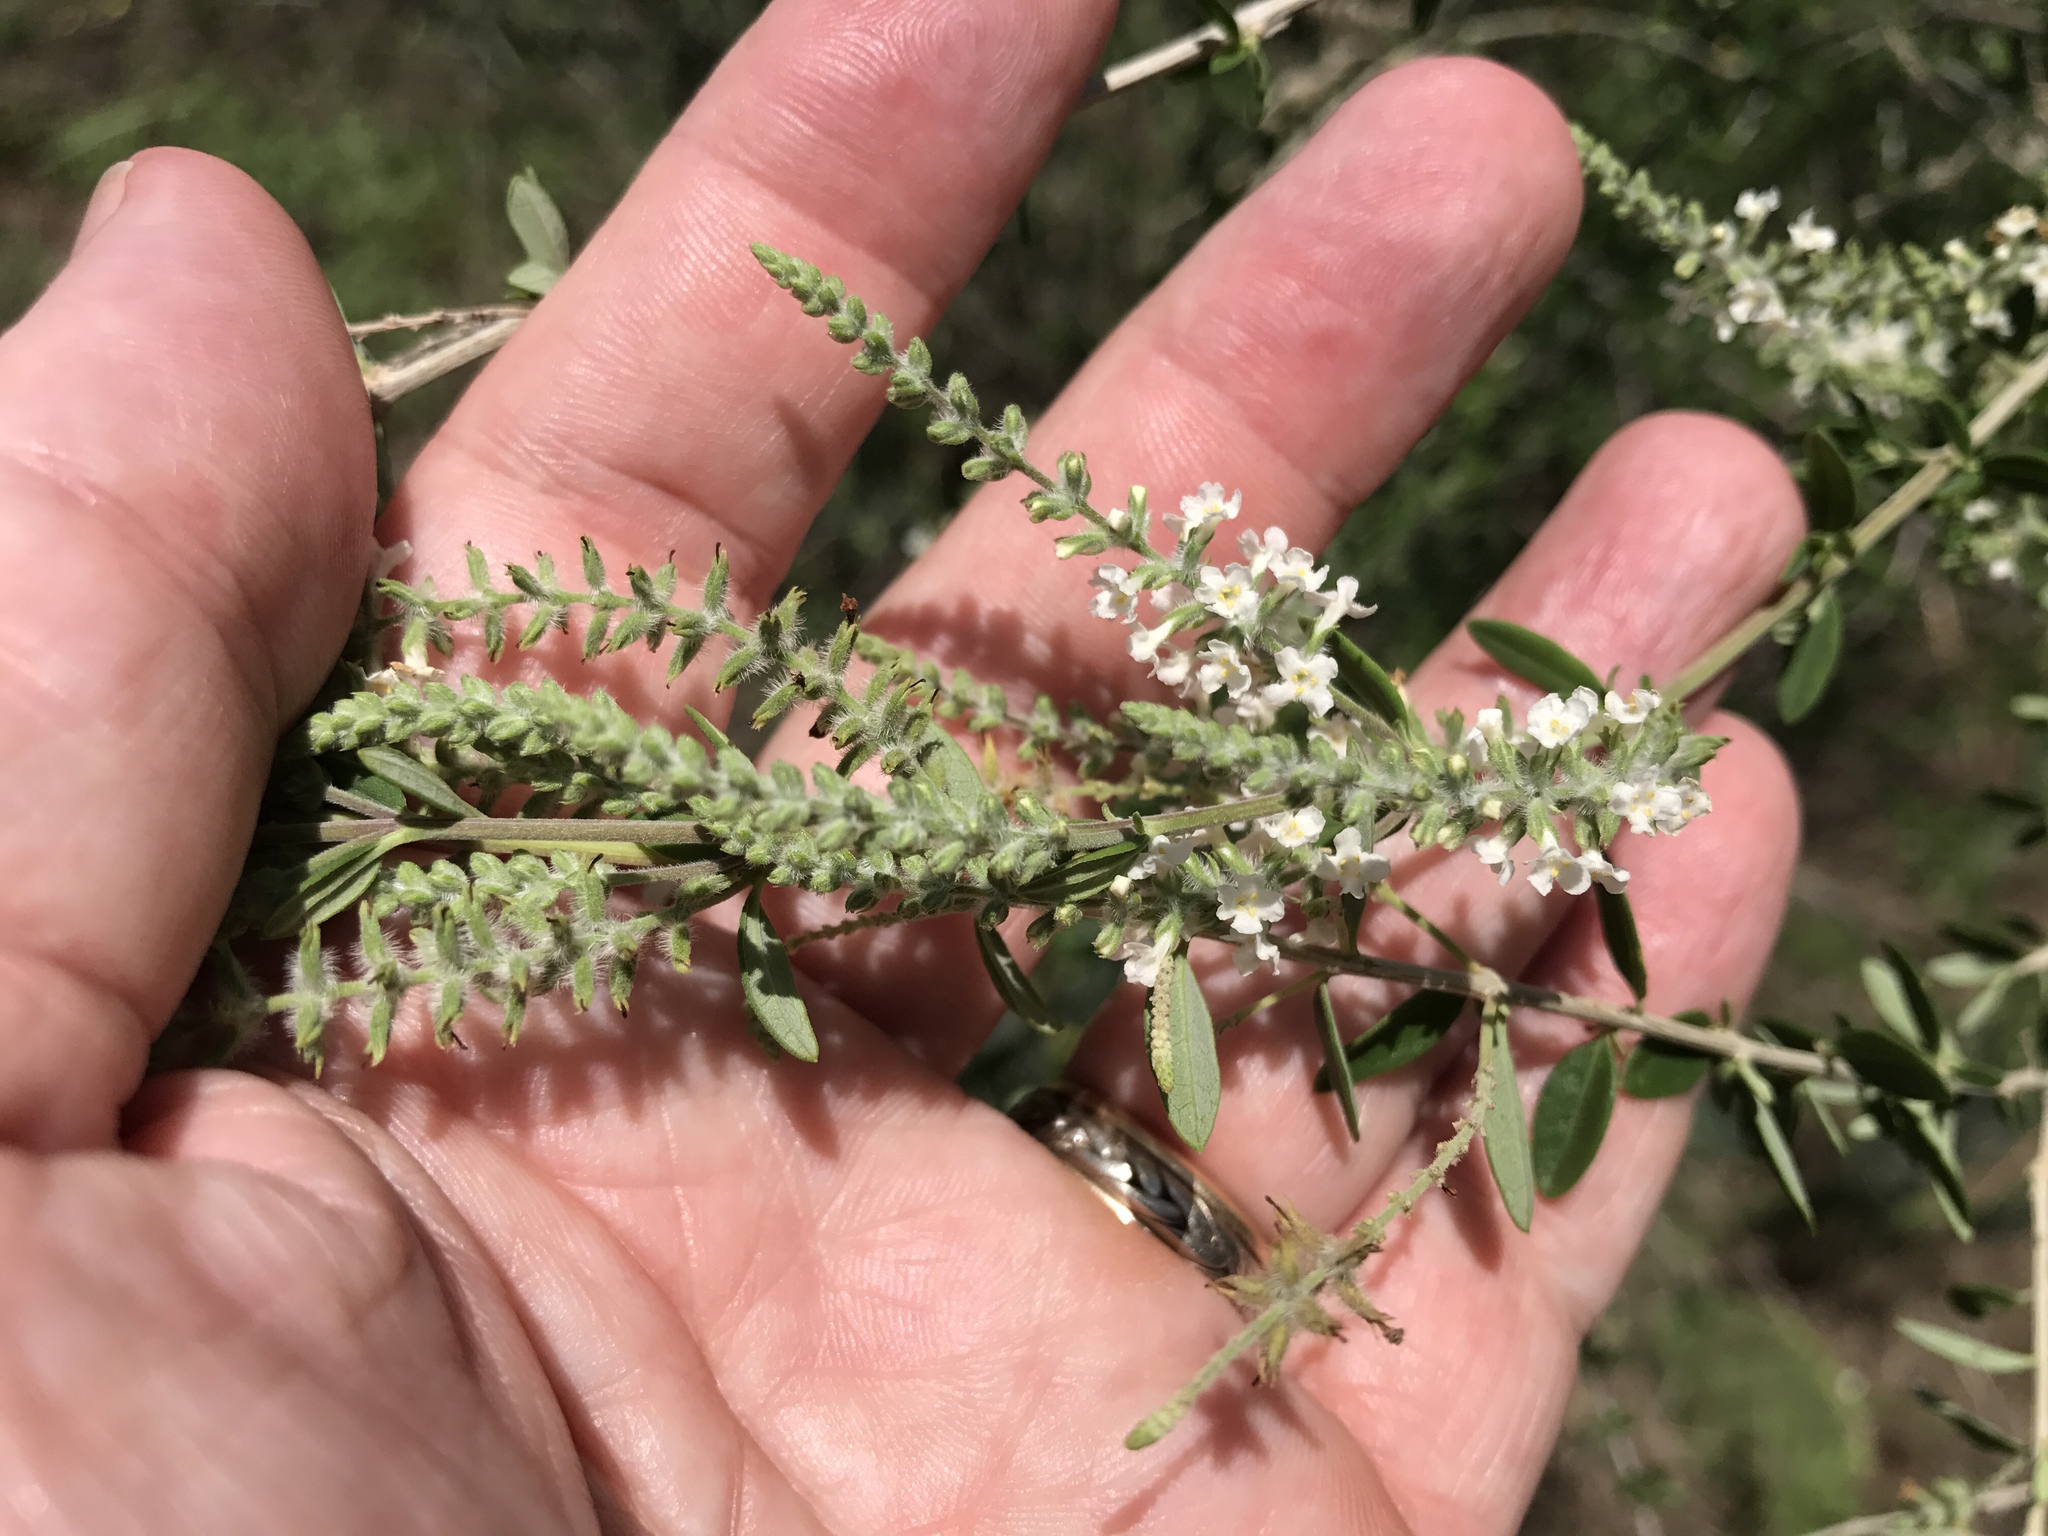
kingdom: Plantae
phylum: Tracheophyta
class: Magnoliopsida
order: Lamiales
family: Verbenaceae
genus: Aloysia
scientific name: Aloysia gratissima
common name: Common bee-brush
